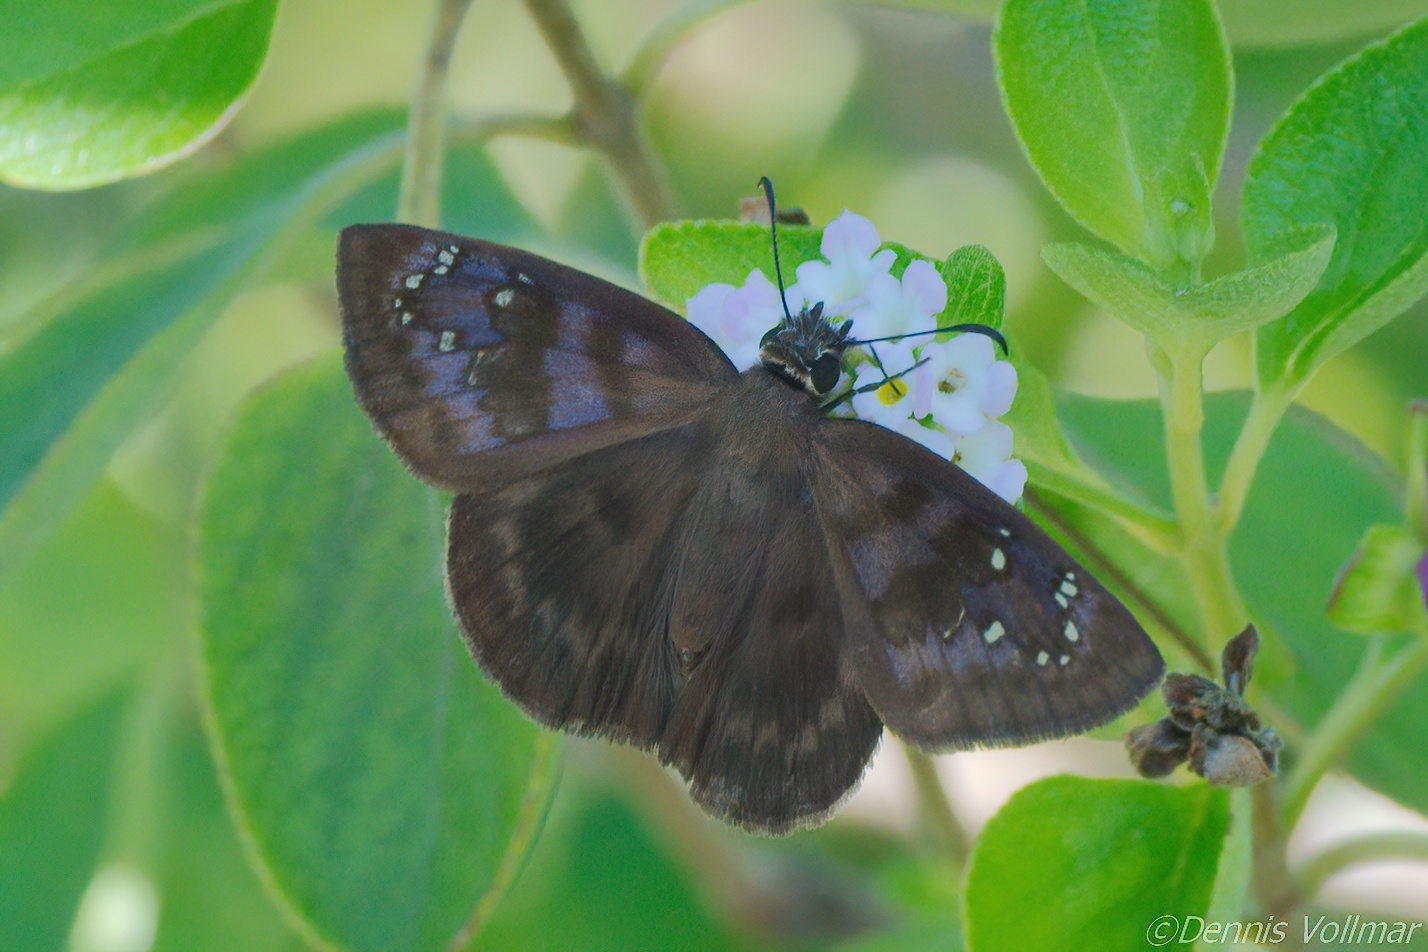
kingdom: Animalia
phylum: Arthropoda
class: Insecta
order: Lepidoptera
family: Hesperiidae
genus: Ephyriades
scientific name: Ephyriades brunnea
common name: Florida duskywing
